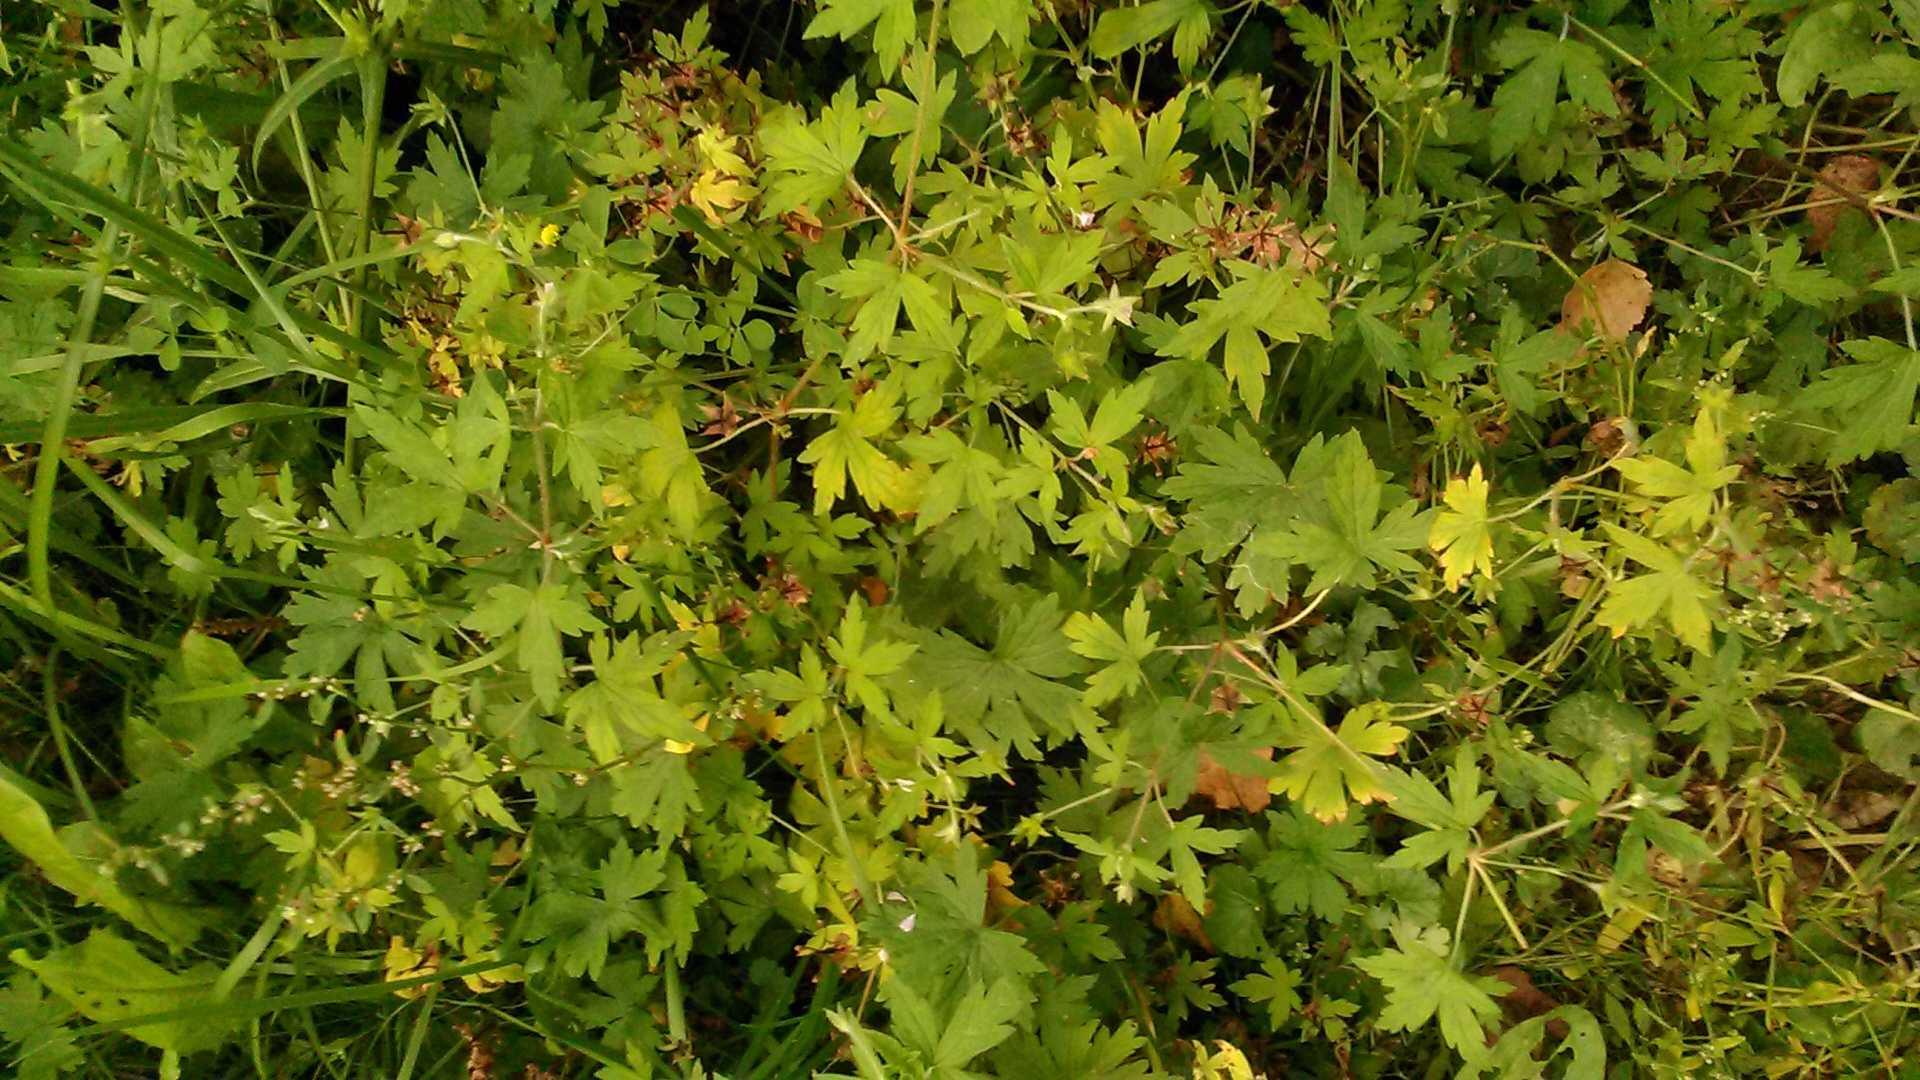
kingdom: Plantae
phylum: Tracheophyta
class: Magnoliopsida
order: Geraniales
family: Geraniaceae
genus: Geranium
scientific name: Geranium sibiricum
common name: Siberian crane's-bill
